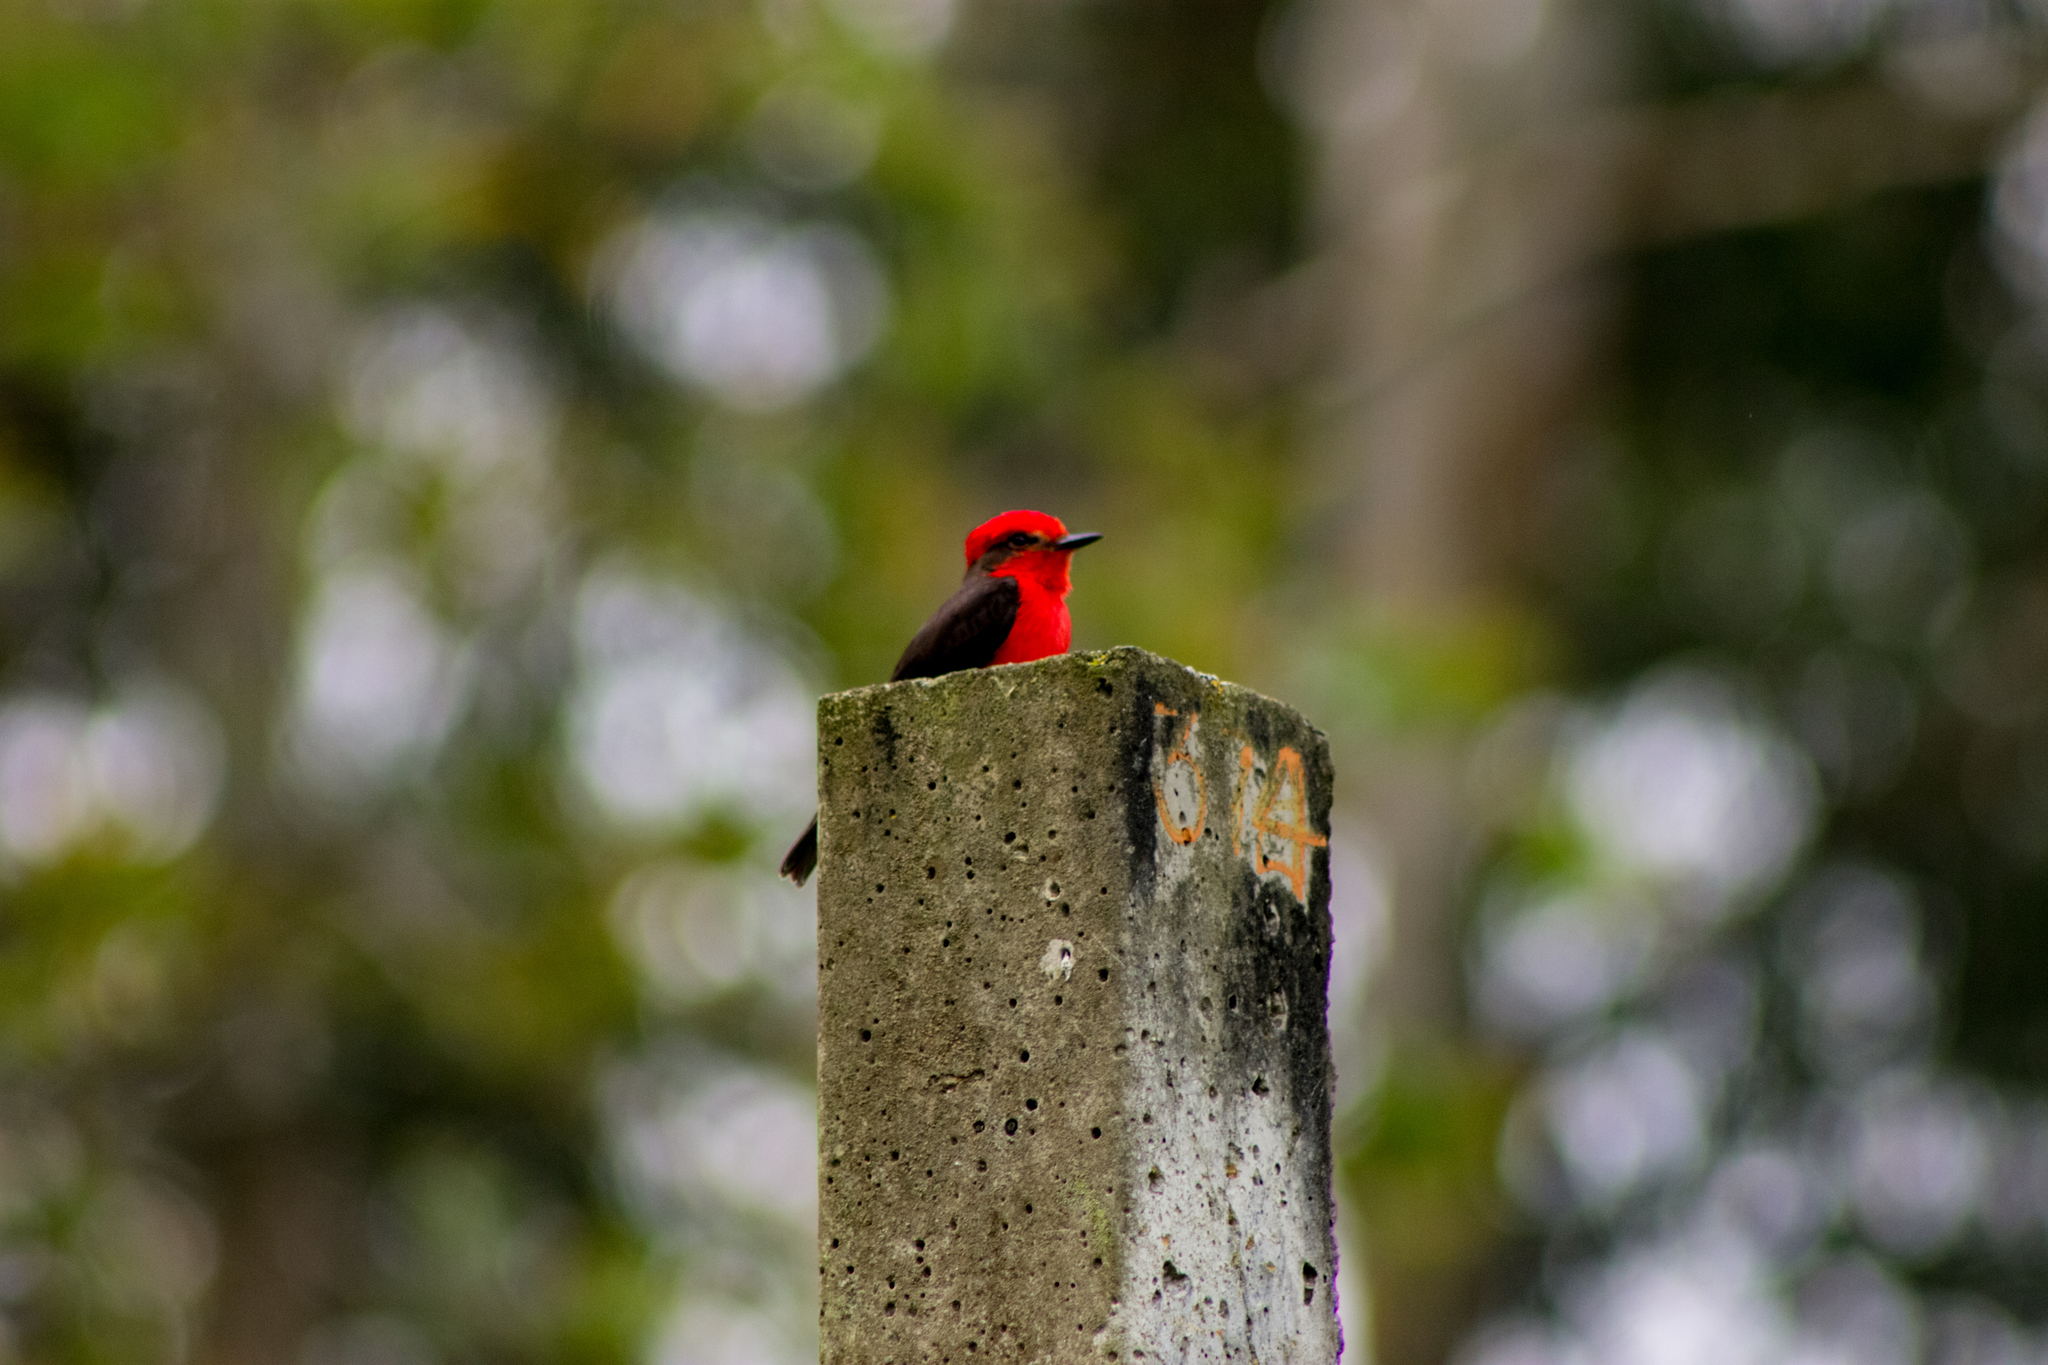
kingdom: Animalia
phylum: Chordata
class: Aves
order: Passeriformes
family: Tyrannidae
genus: Pyrocephalus
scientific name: Pyrocephalus rubinus
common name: Vermilion flycatcher
